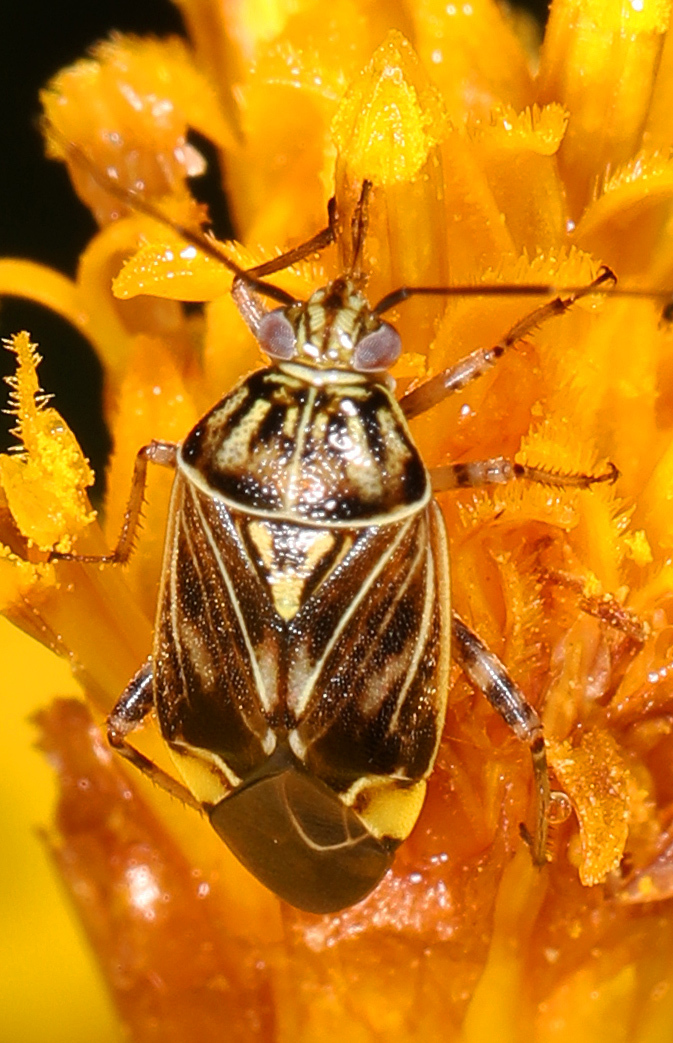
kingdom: Animalia
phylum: Arthropoda
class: Insecta
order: Hemiptera
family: Miridae
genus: Lygus
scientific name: Lygus lineolaris
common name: North american tarnished plant bug
